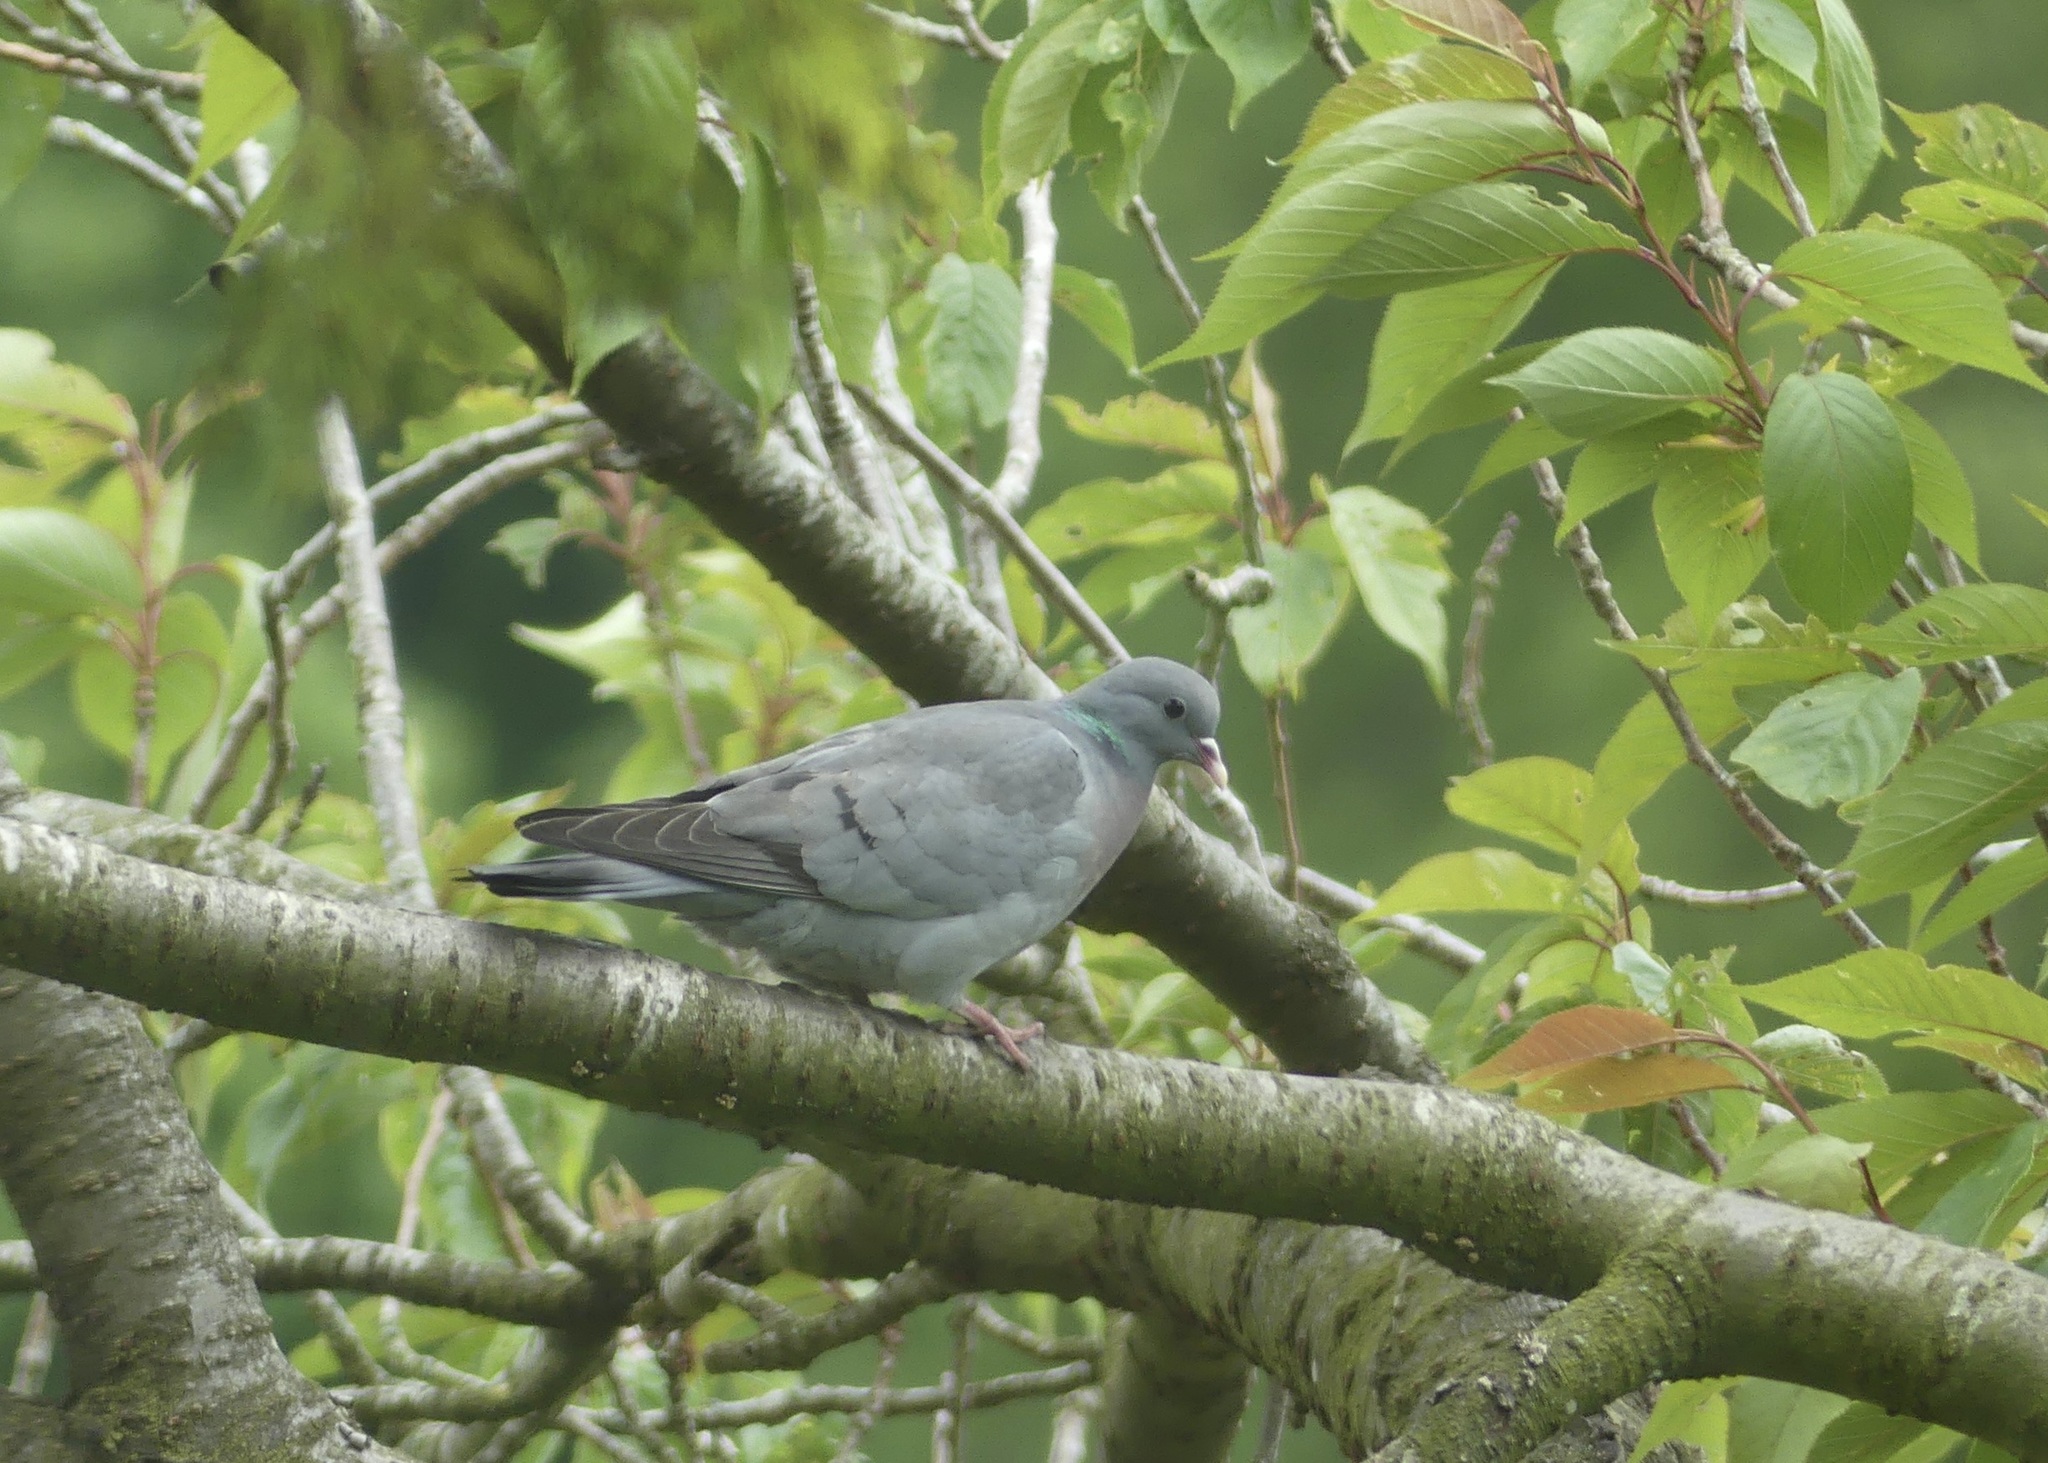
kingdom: Animalia
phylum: Chordata
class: Aves
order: Columbiformes
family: Columbidae
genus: Columba
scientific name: Columba oenas
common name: Stock dove
